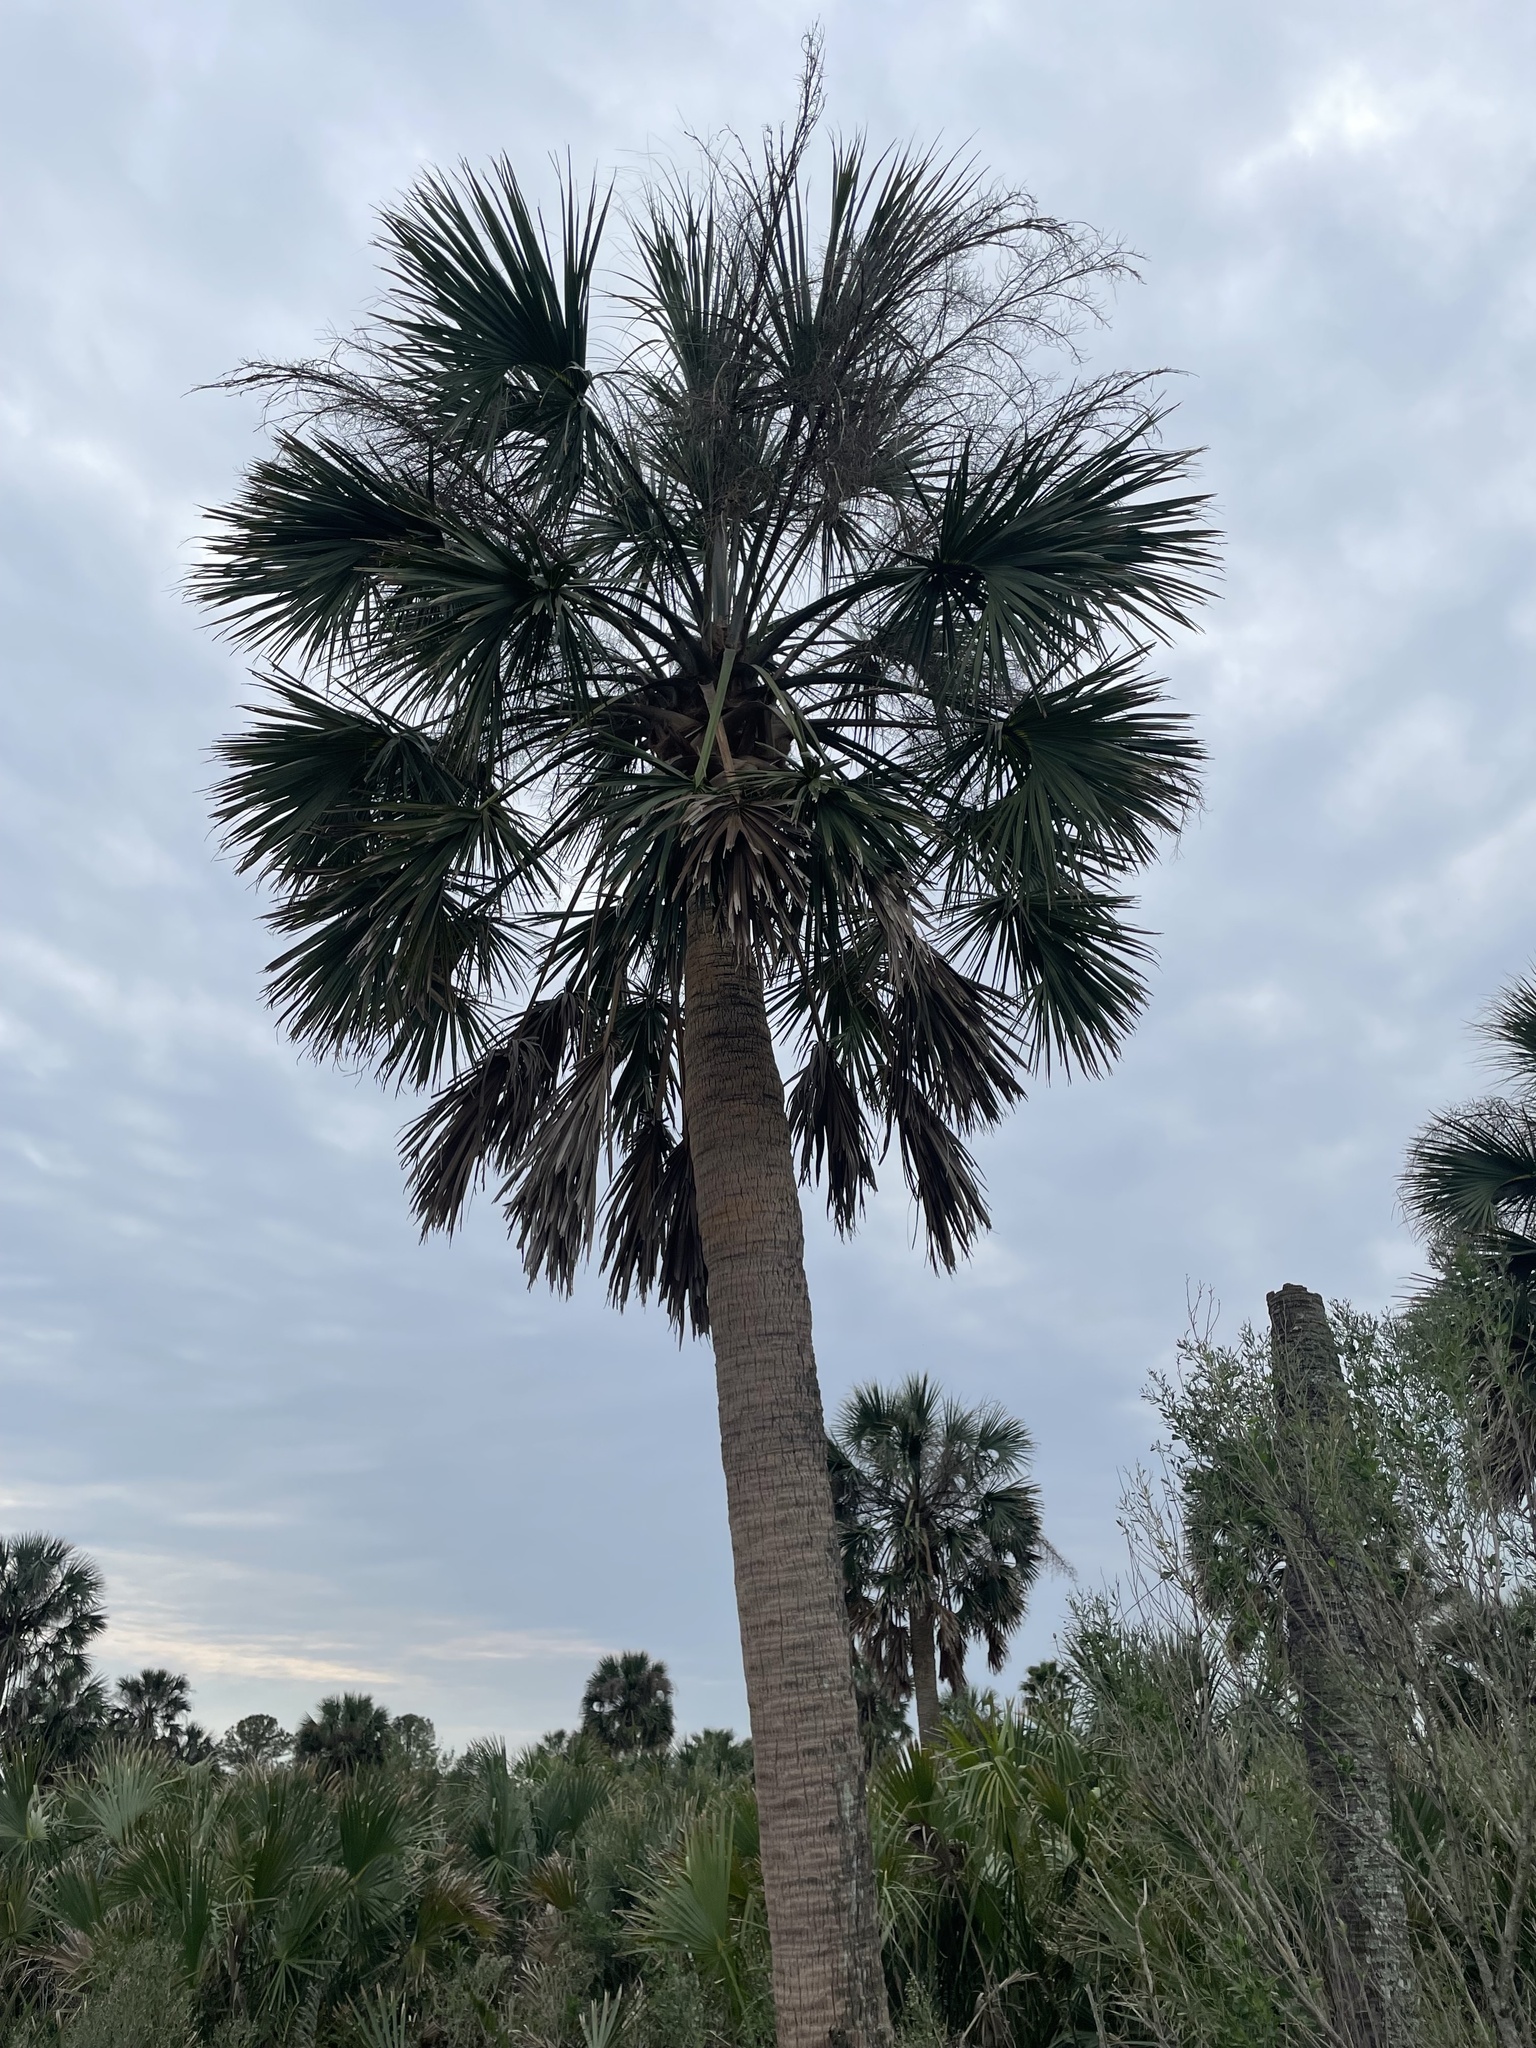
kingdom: Plantae
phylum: Tracheophyta
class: Liliopsida
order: Arecales
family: Arecaceae
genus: Sabal
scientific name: Sabal palmetto
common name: Blue palmetto
